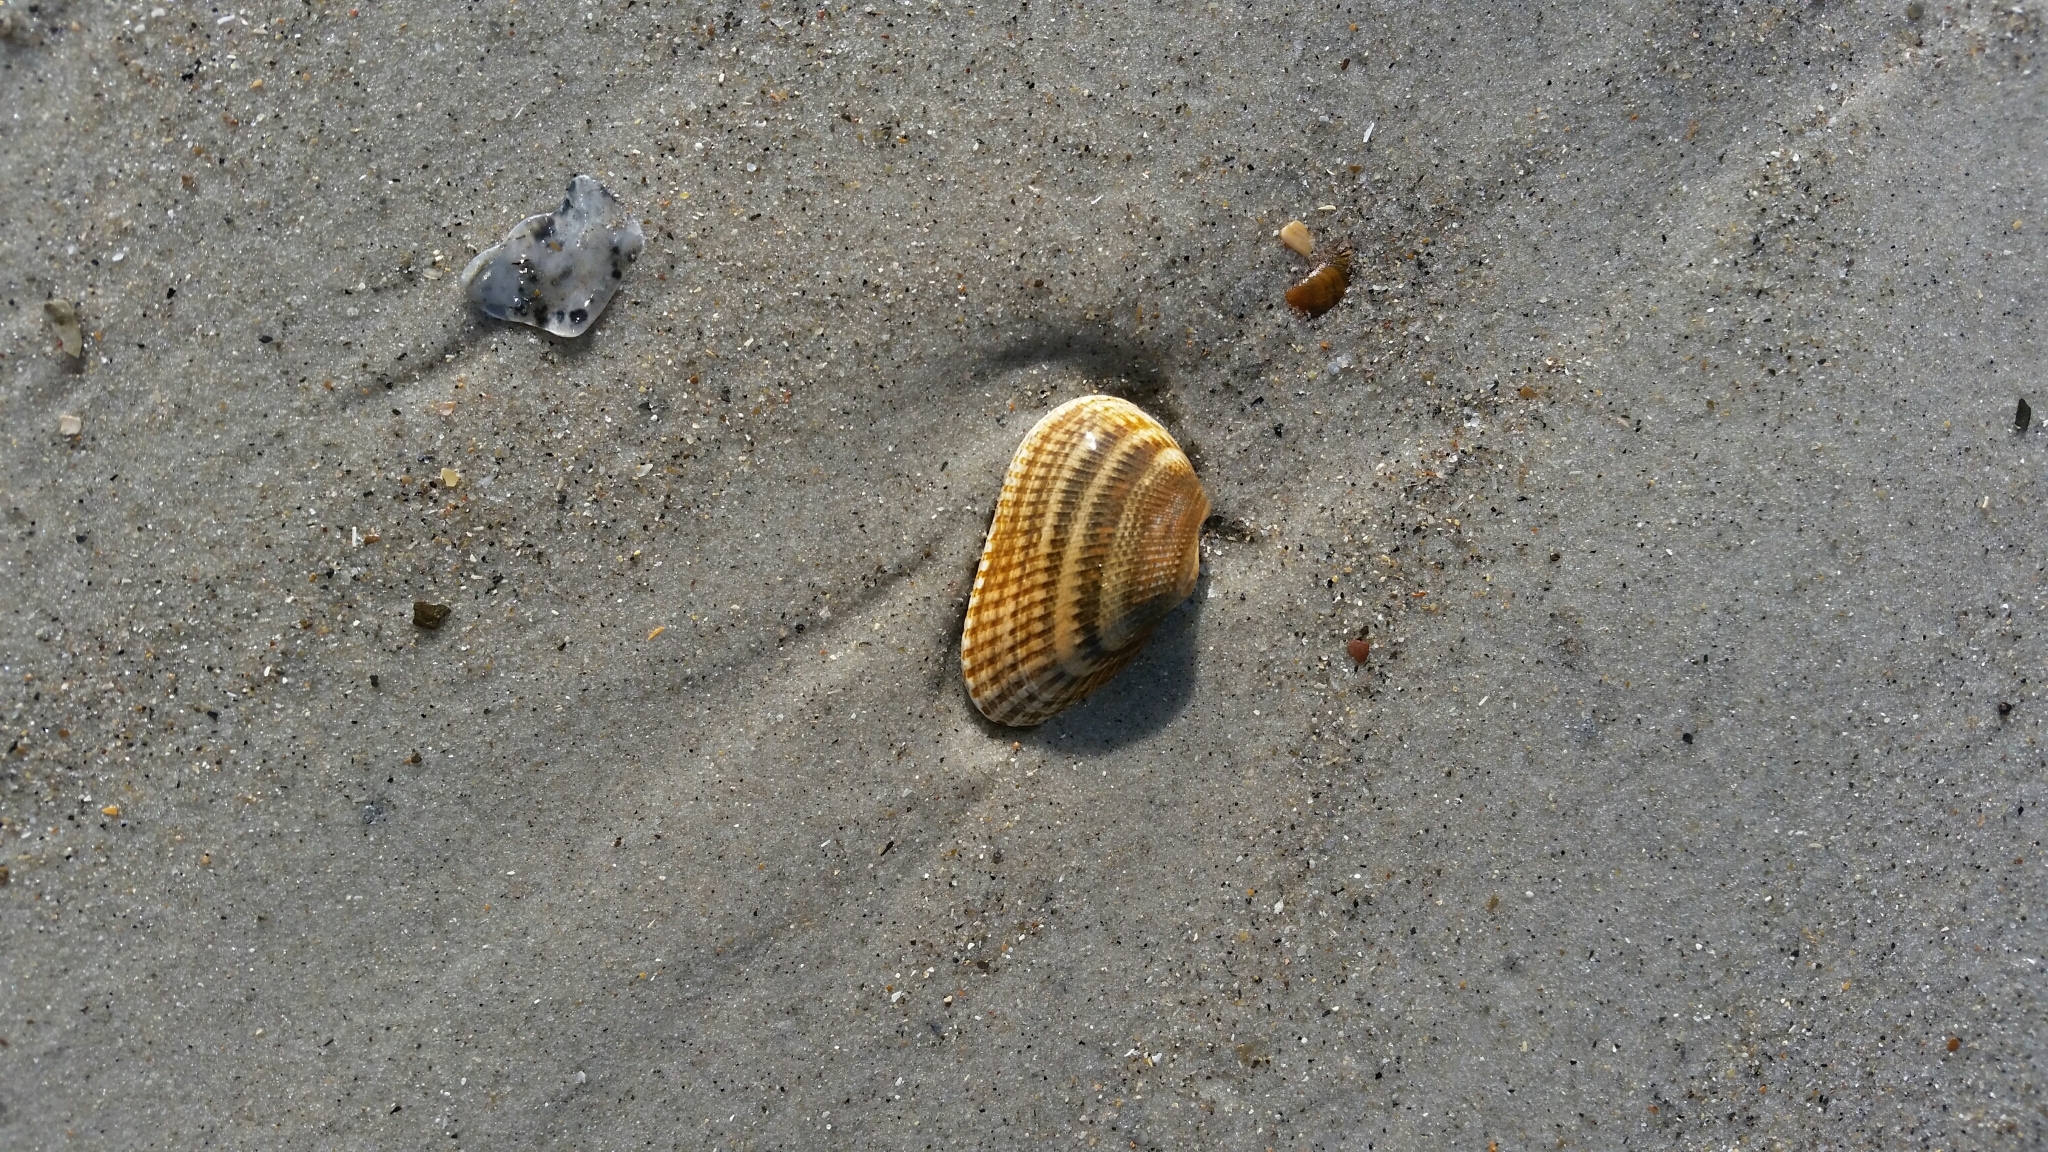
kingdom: Animalia
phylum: Mollusca
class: Bivalvia
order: Arcida
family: Noetiidae
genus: Noetia
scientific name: Noetia ponderosa
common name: Ponderous ark
